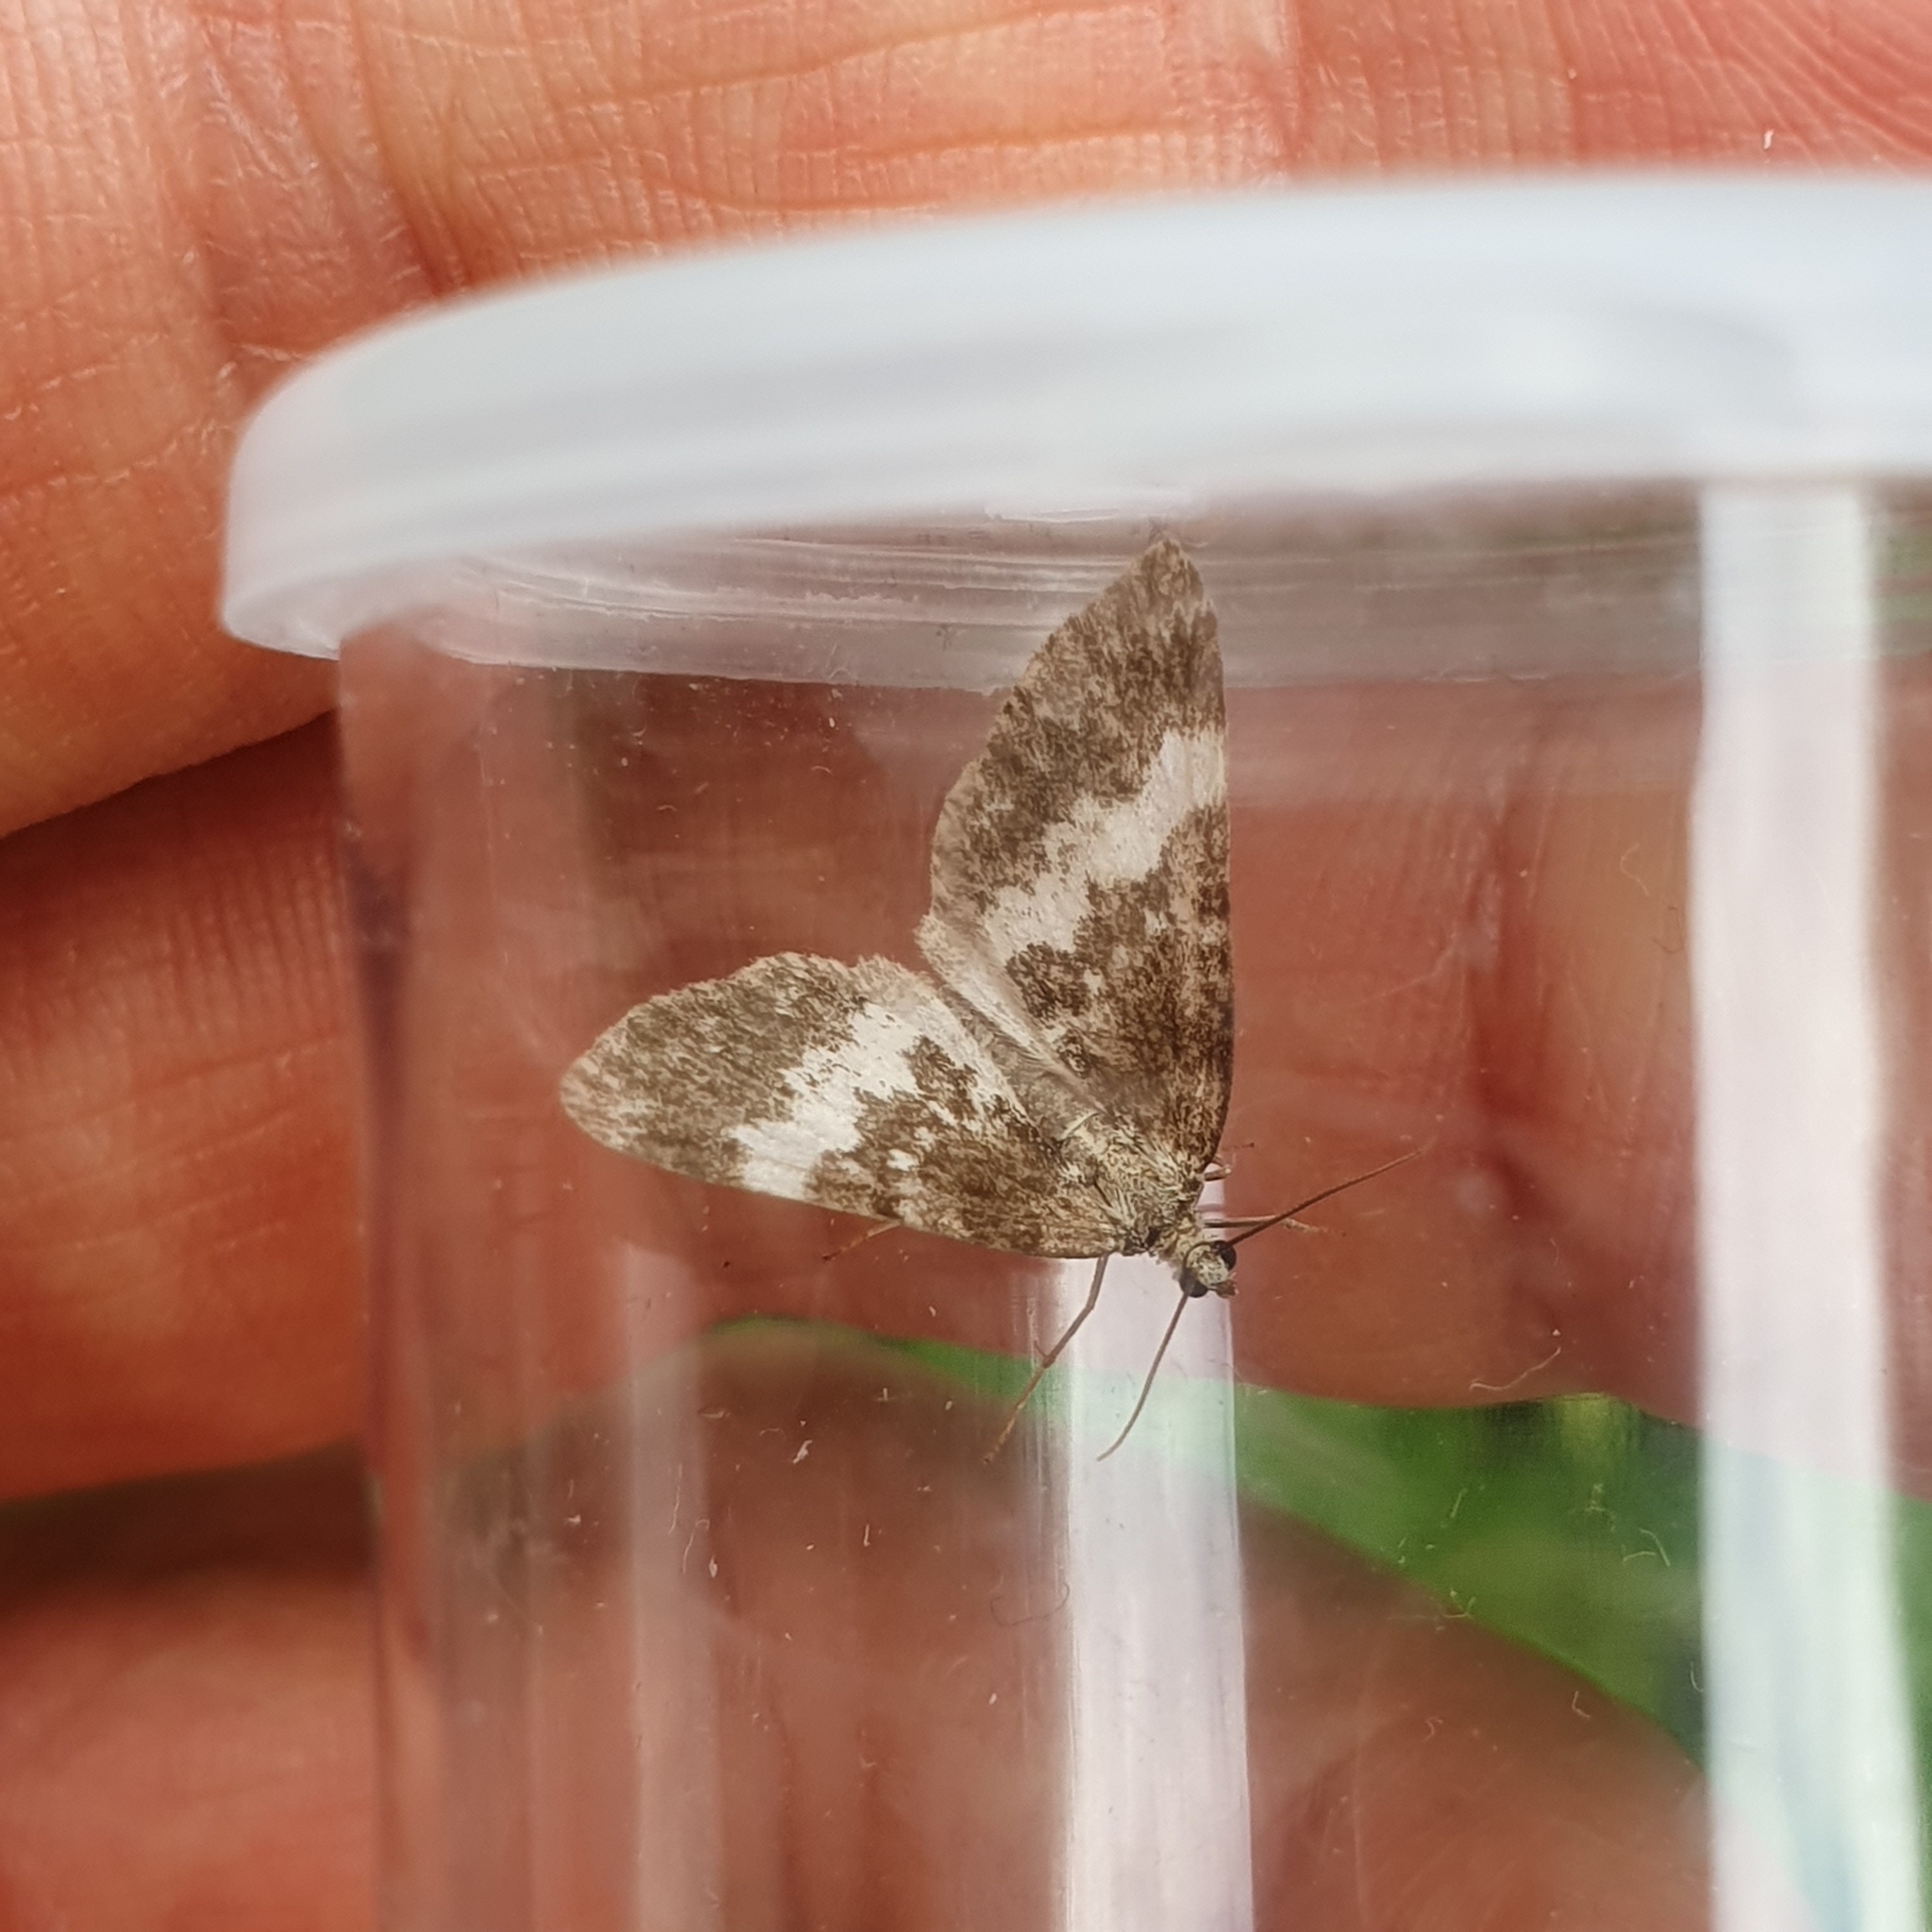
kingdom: Animalia
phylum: Arthropoda
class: Insecta
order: Lepidoptera
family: Geometridae
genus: Perizoma
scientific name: Perizoma affinitata
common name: Rivulet
